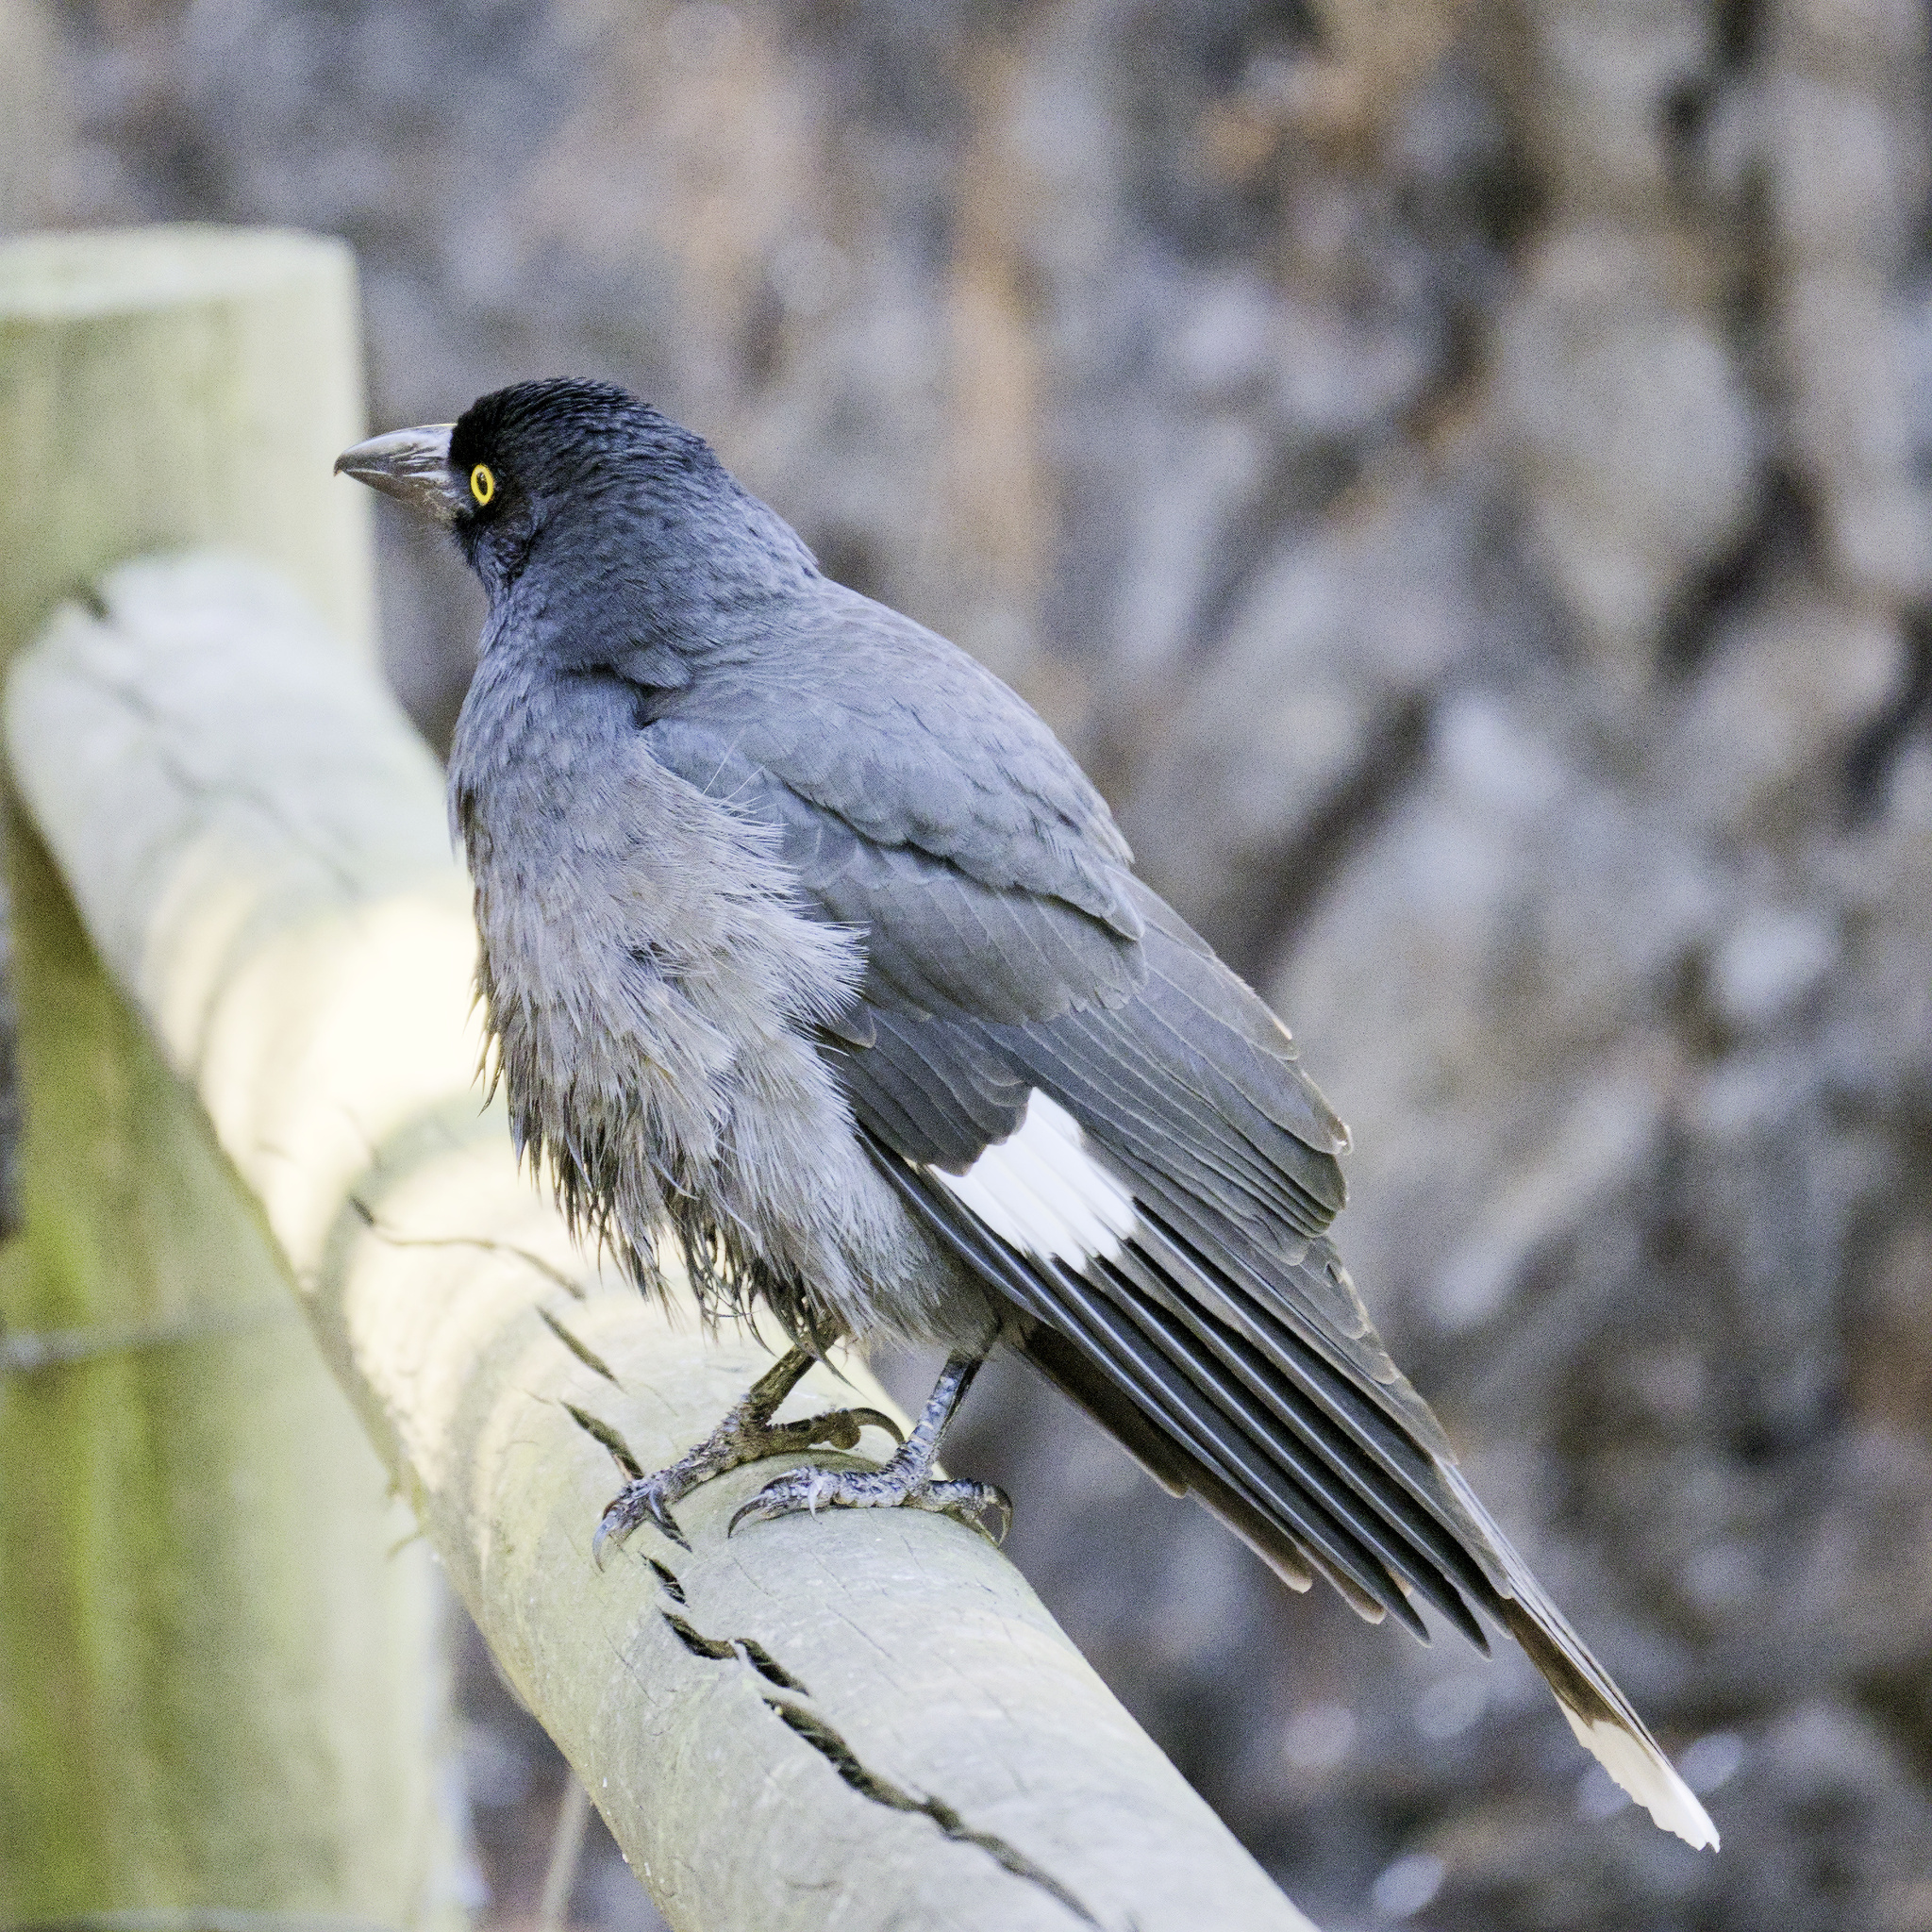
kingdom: Animalia
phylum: Chordata
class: Aves
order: Passeriformes
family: Cracticidae
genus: Strepera
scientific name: Strepera graculina
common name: Pied currawong
